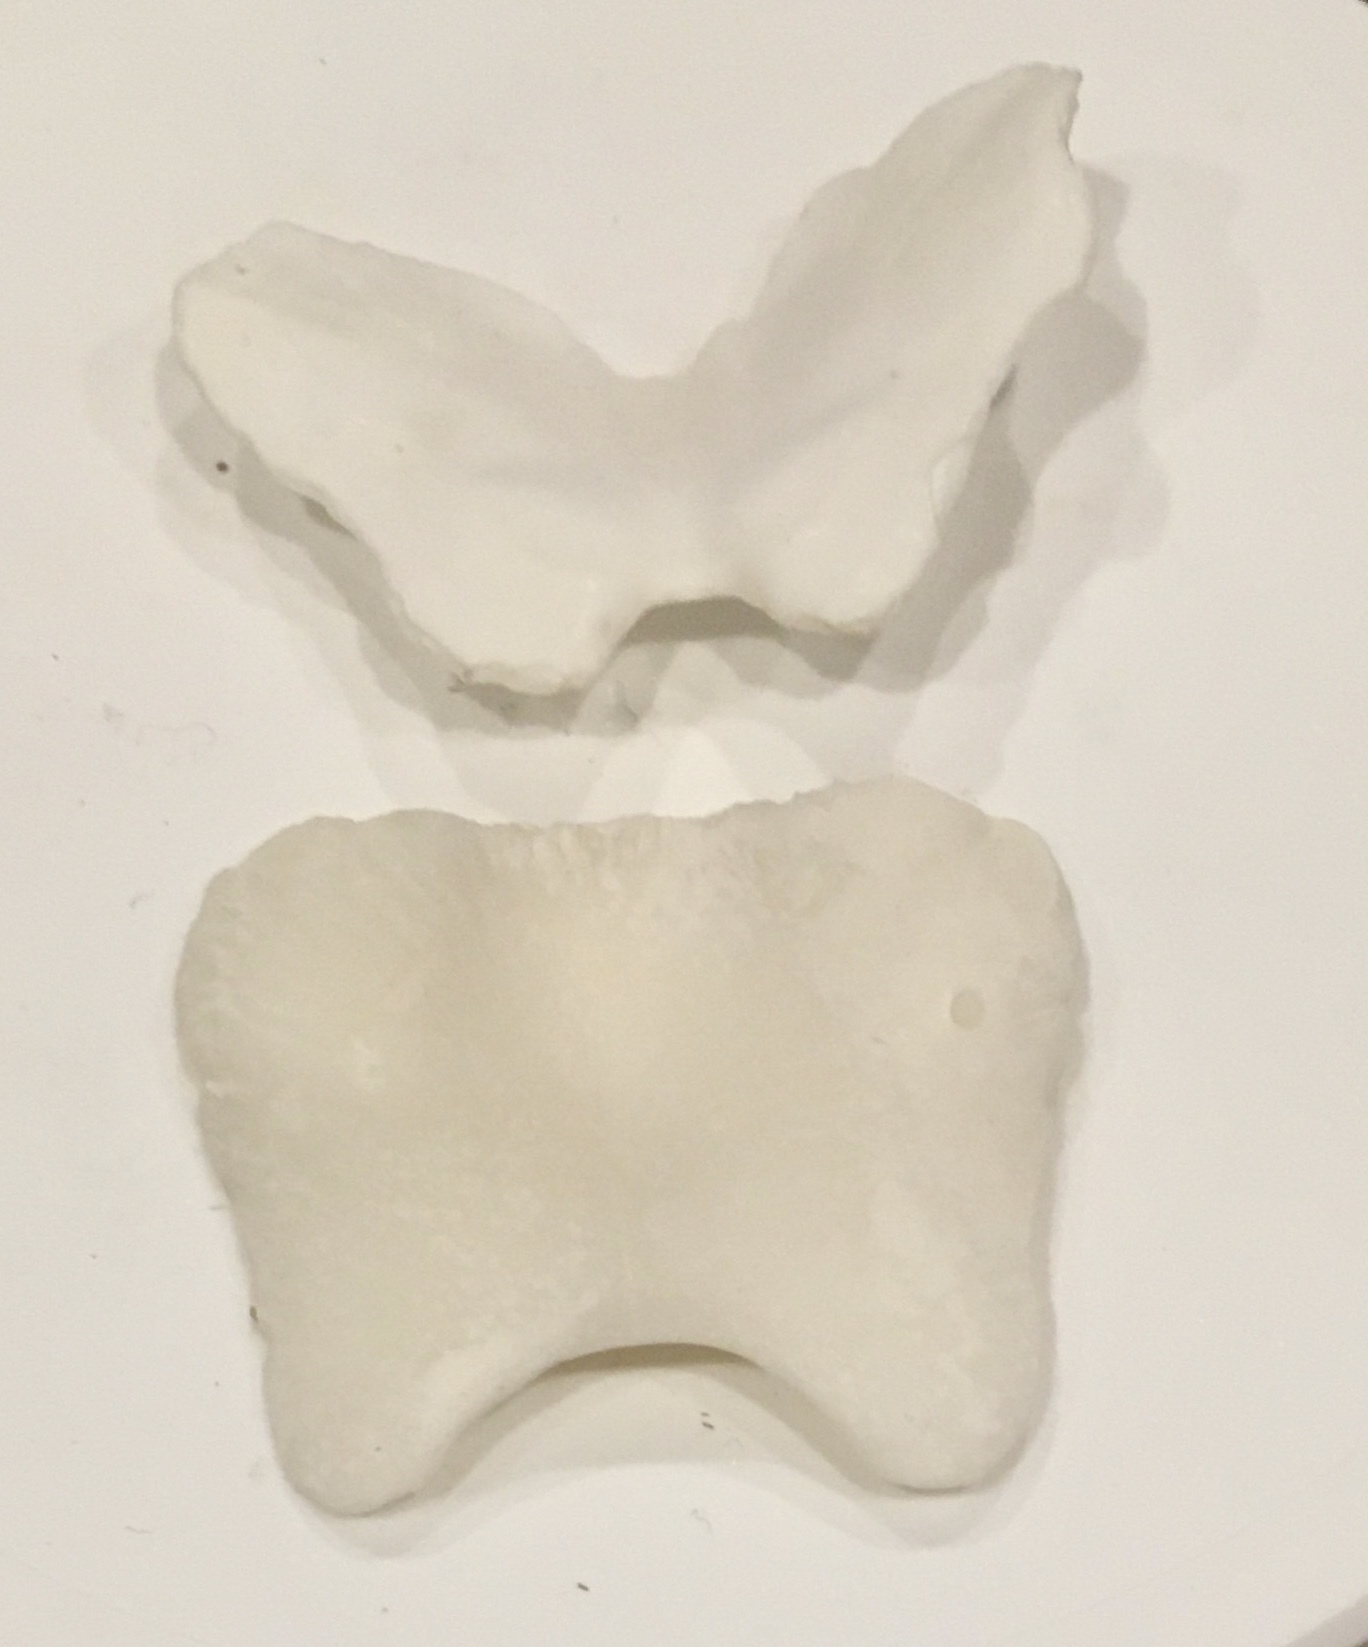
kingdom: Animalia
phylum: Mollusca
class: Polyplacophora
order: Chitonida
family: Acanthochitonidae
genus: Cryptochiton
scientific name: Cryptochiton stelleri
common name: Giant pacific chiton
